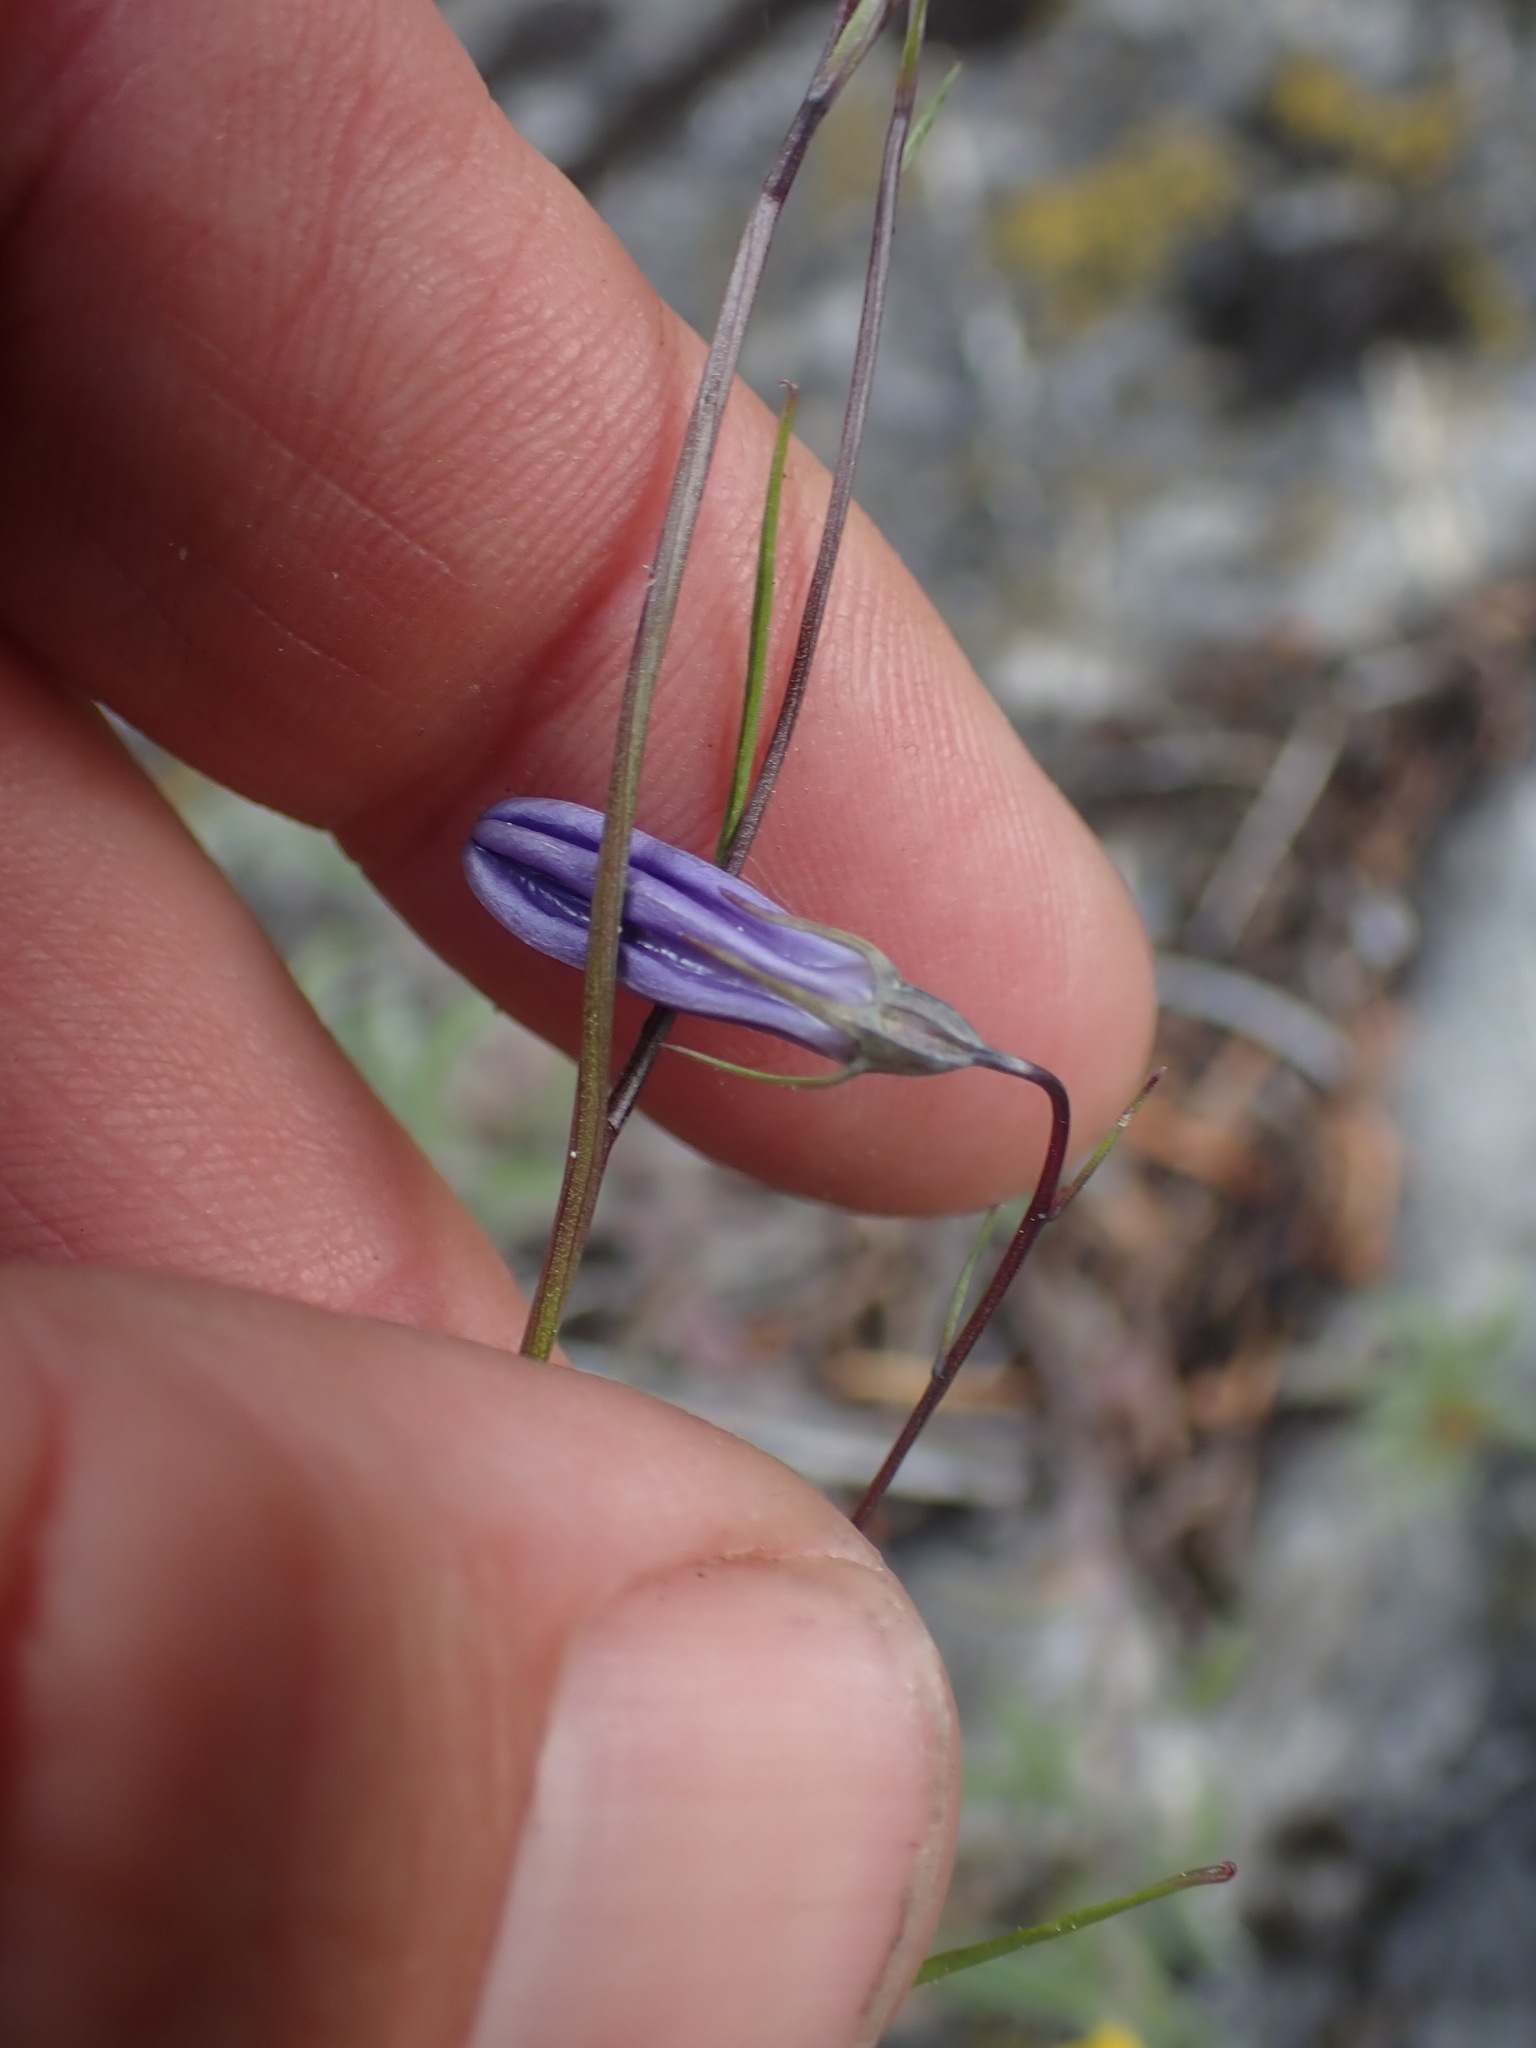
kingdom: Plantae
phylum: Tracheophyta
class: Magnoliopsida
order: Asterales
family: Campanulaceae
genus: Campanula
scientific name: Campanula alaskana
